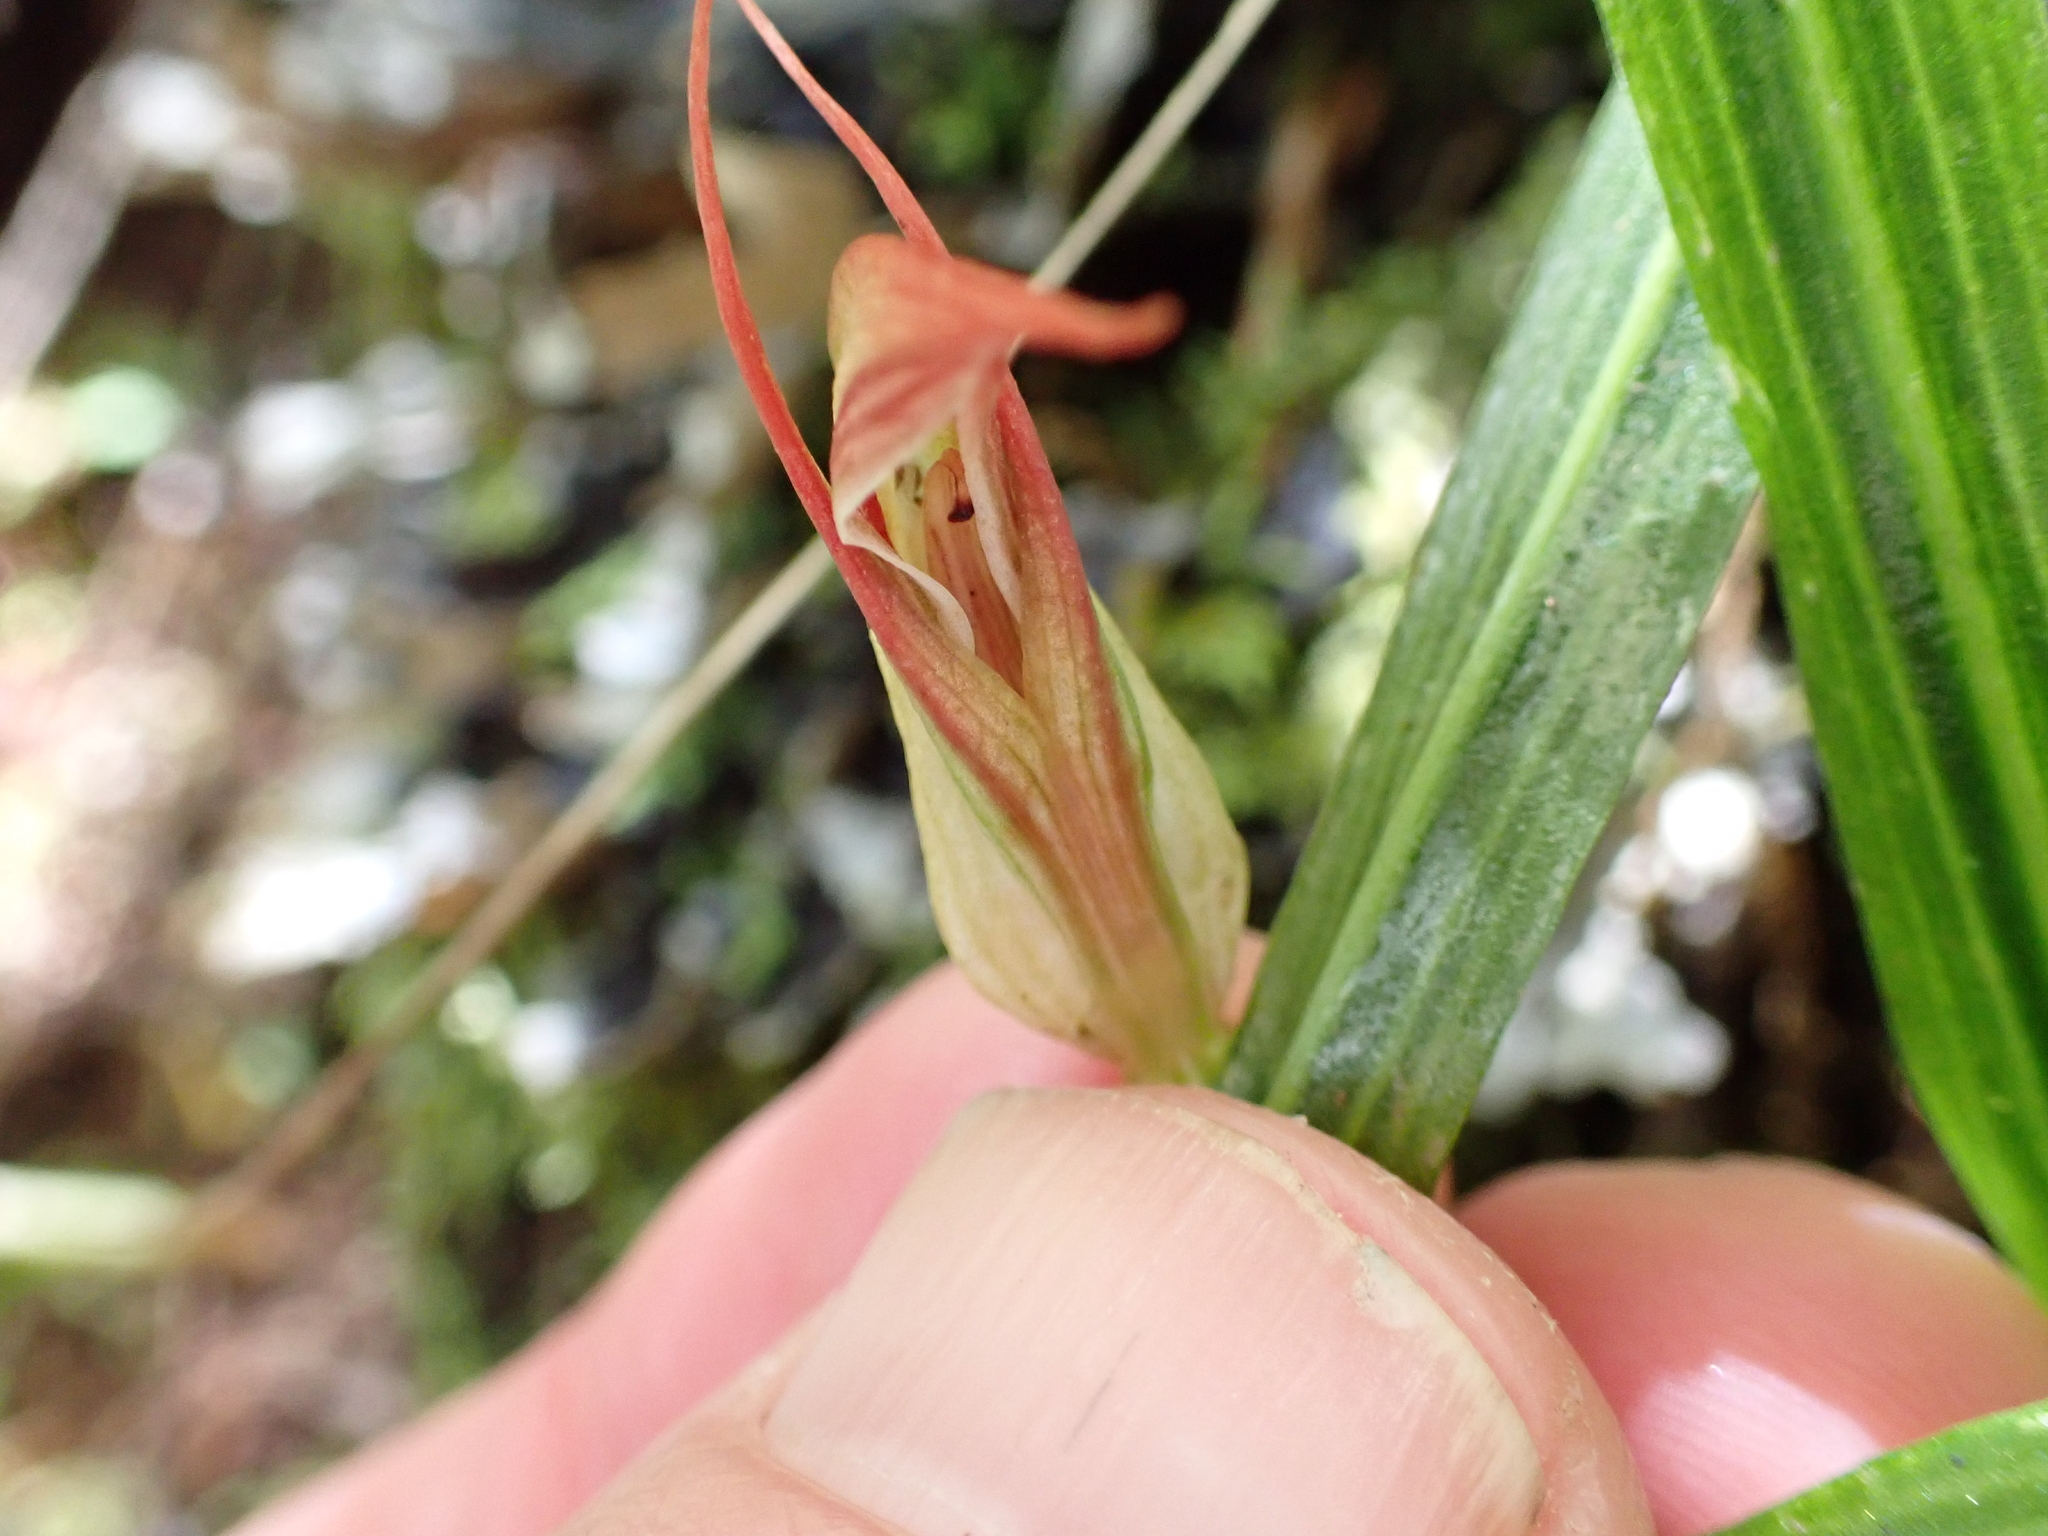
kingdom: Plantae
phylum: Tracheophyta
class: Liliopsida
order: Asparagales
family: Orchidaceae
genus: Pterostylis
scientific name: Pterostylis irsoniana
